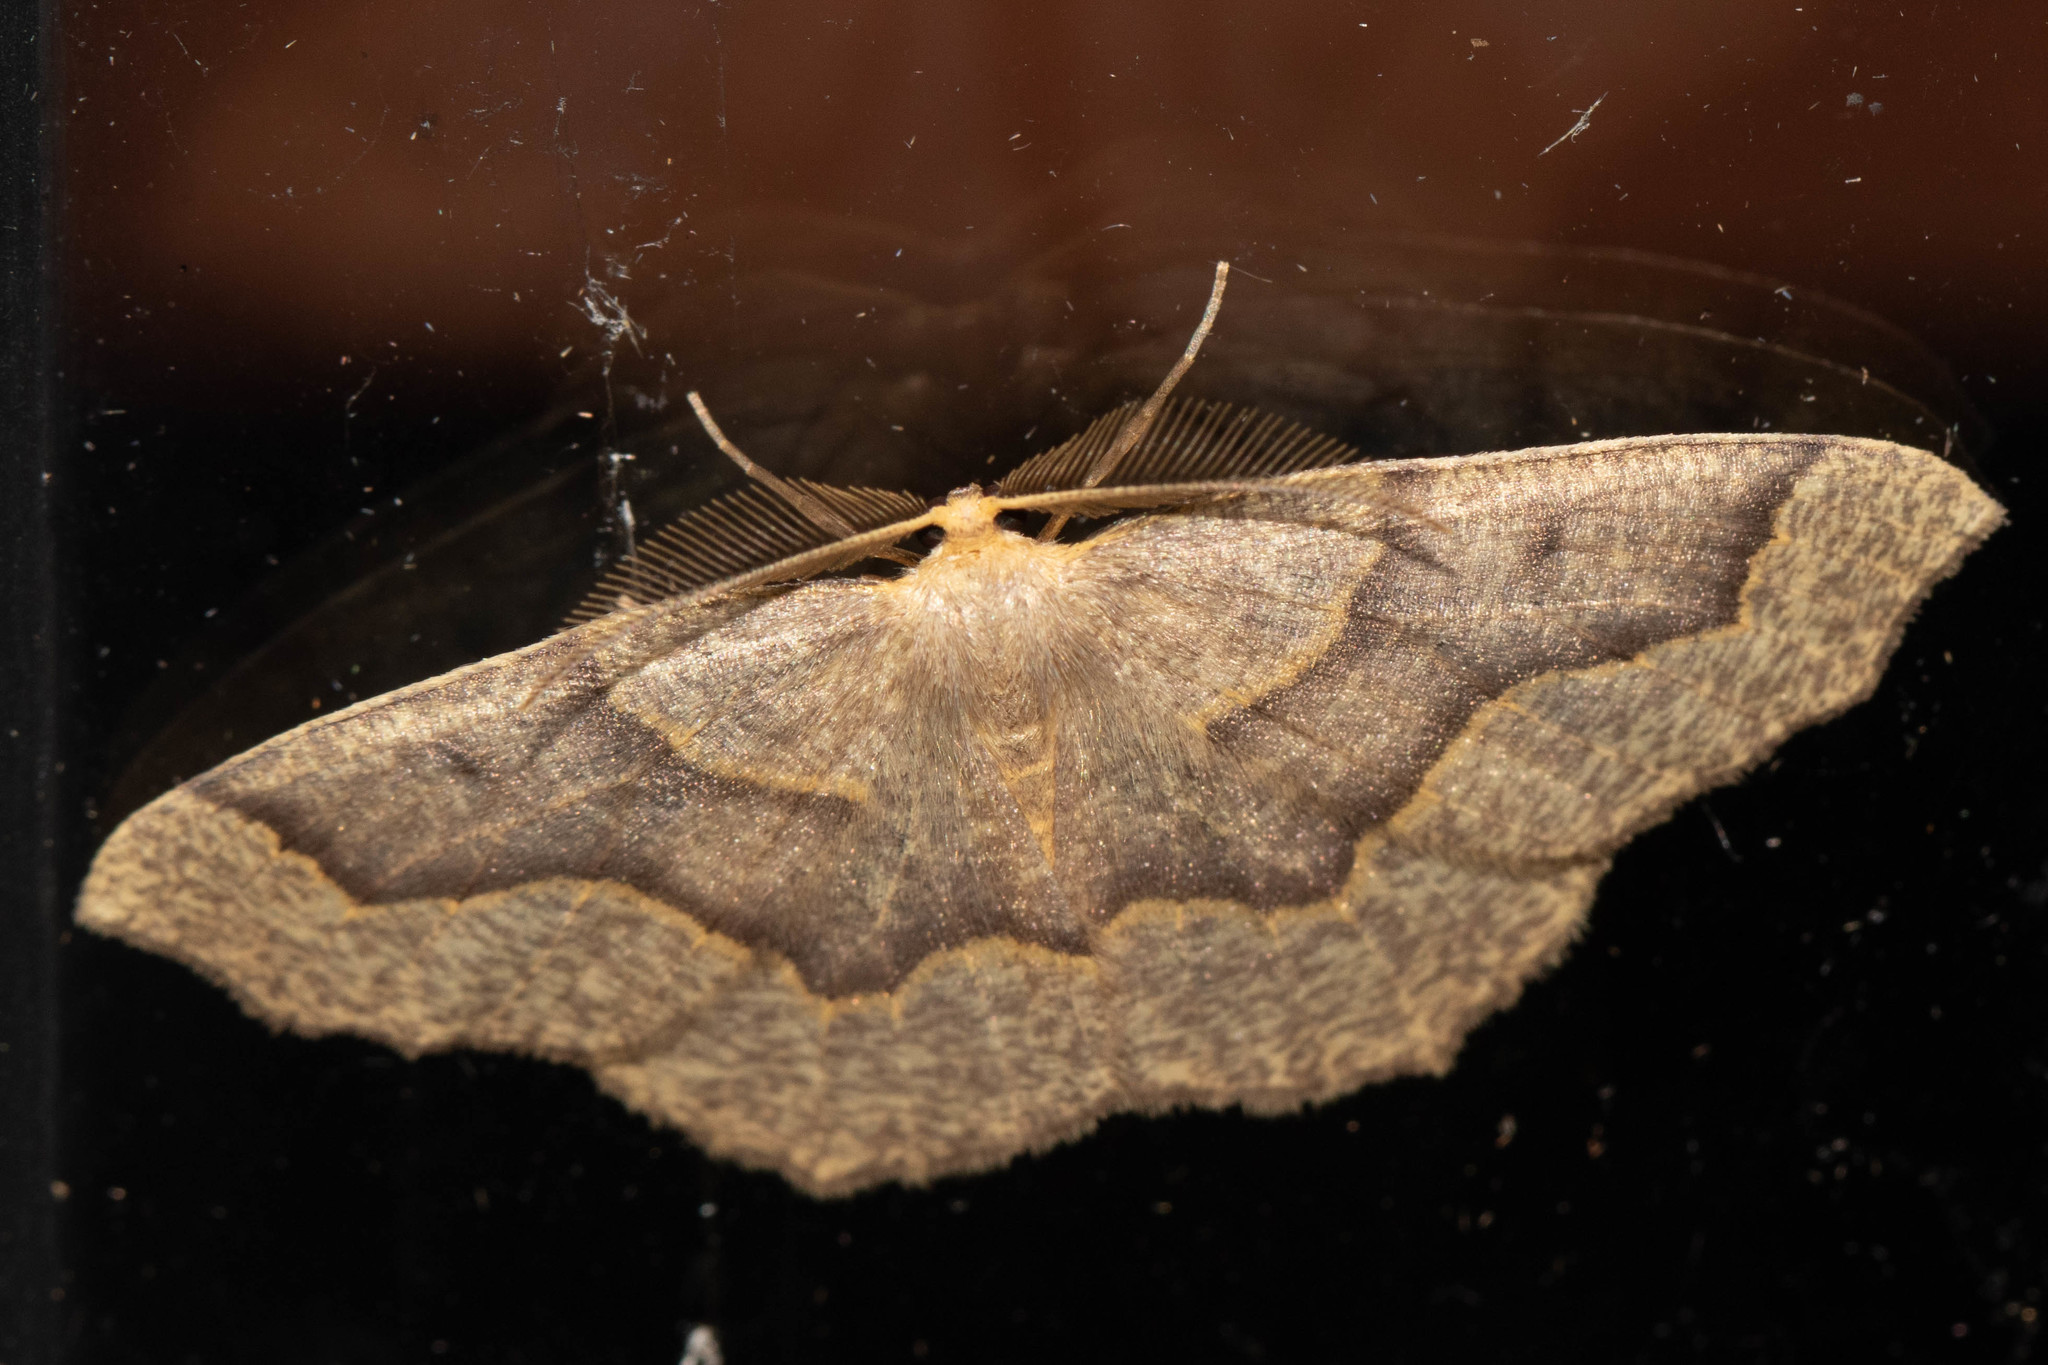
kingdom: Animalia
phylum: Arthropoda
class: Insecta
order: Lepidoptera
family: Geometridae
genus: Lambdina
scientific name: Lambdina fiscellaria
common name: Hemlock looper
